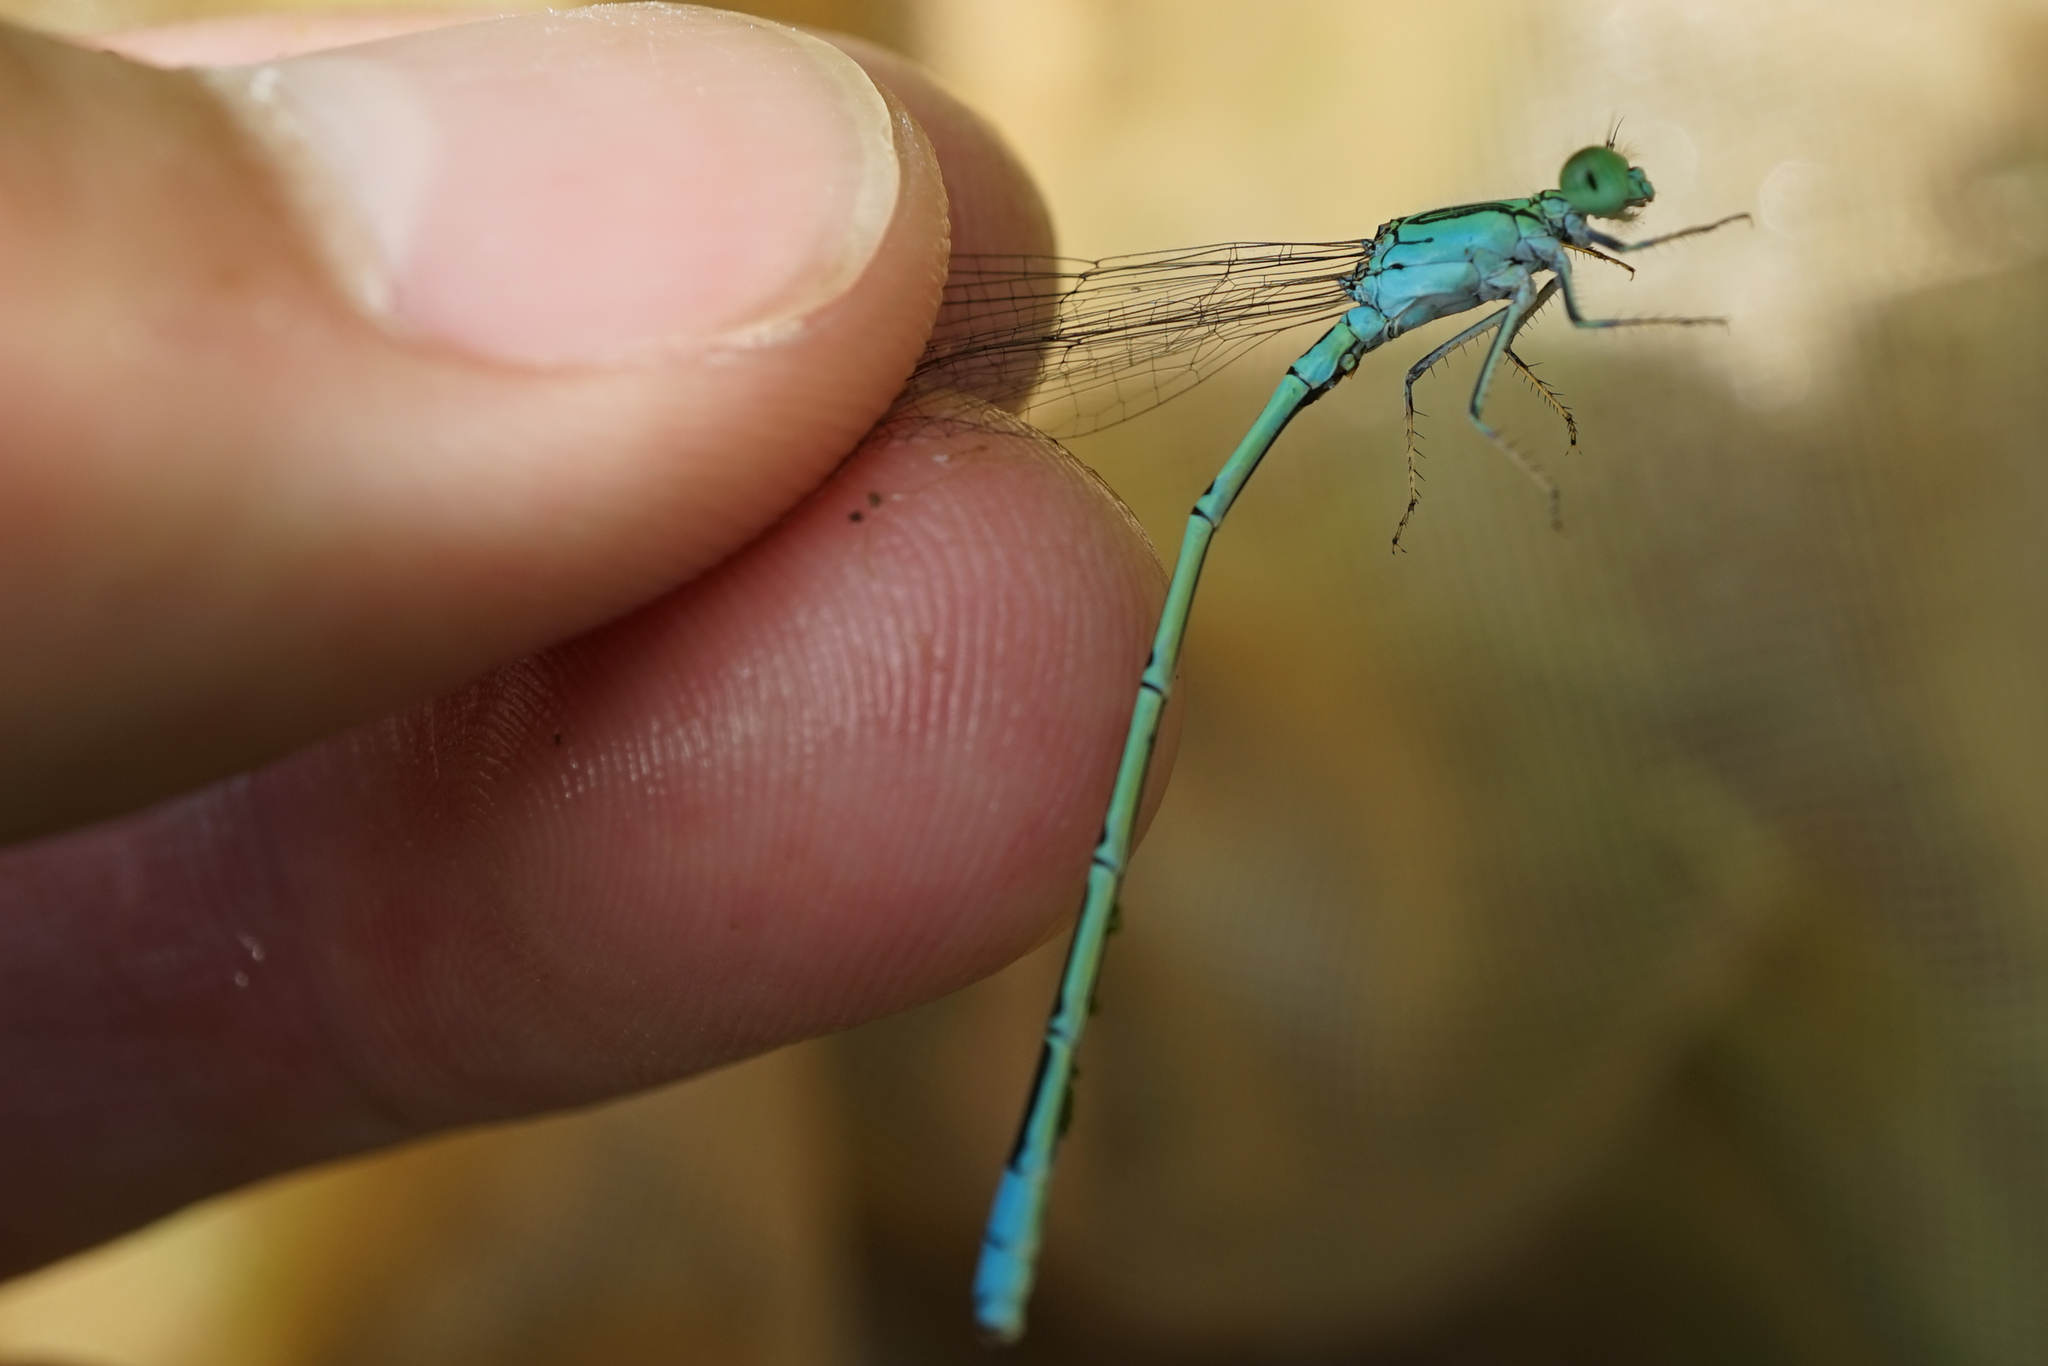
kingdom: Animalia
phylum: Arthropoda
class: Insecta
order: Odonata
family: Coenagrionidae
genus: Paracercion
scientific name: Paracercion hieroglyphicum
